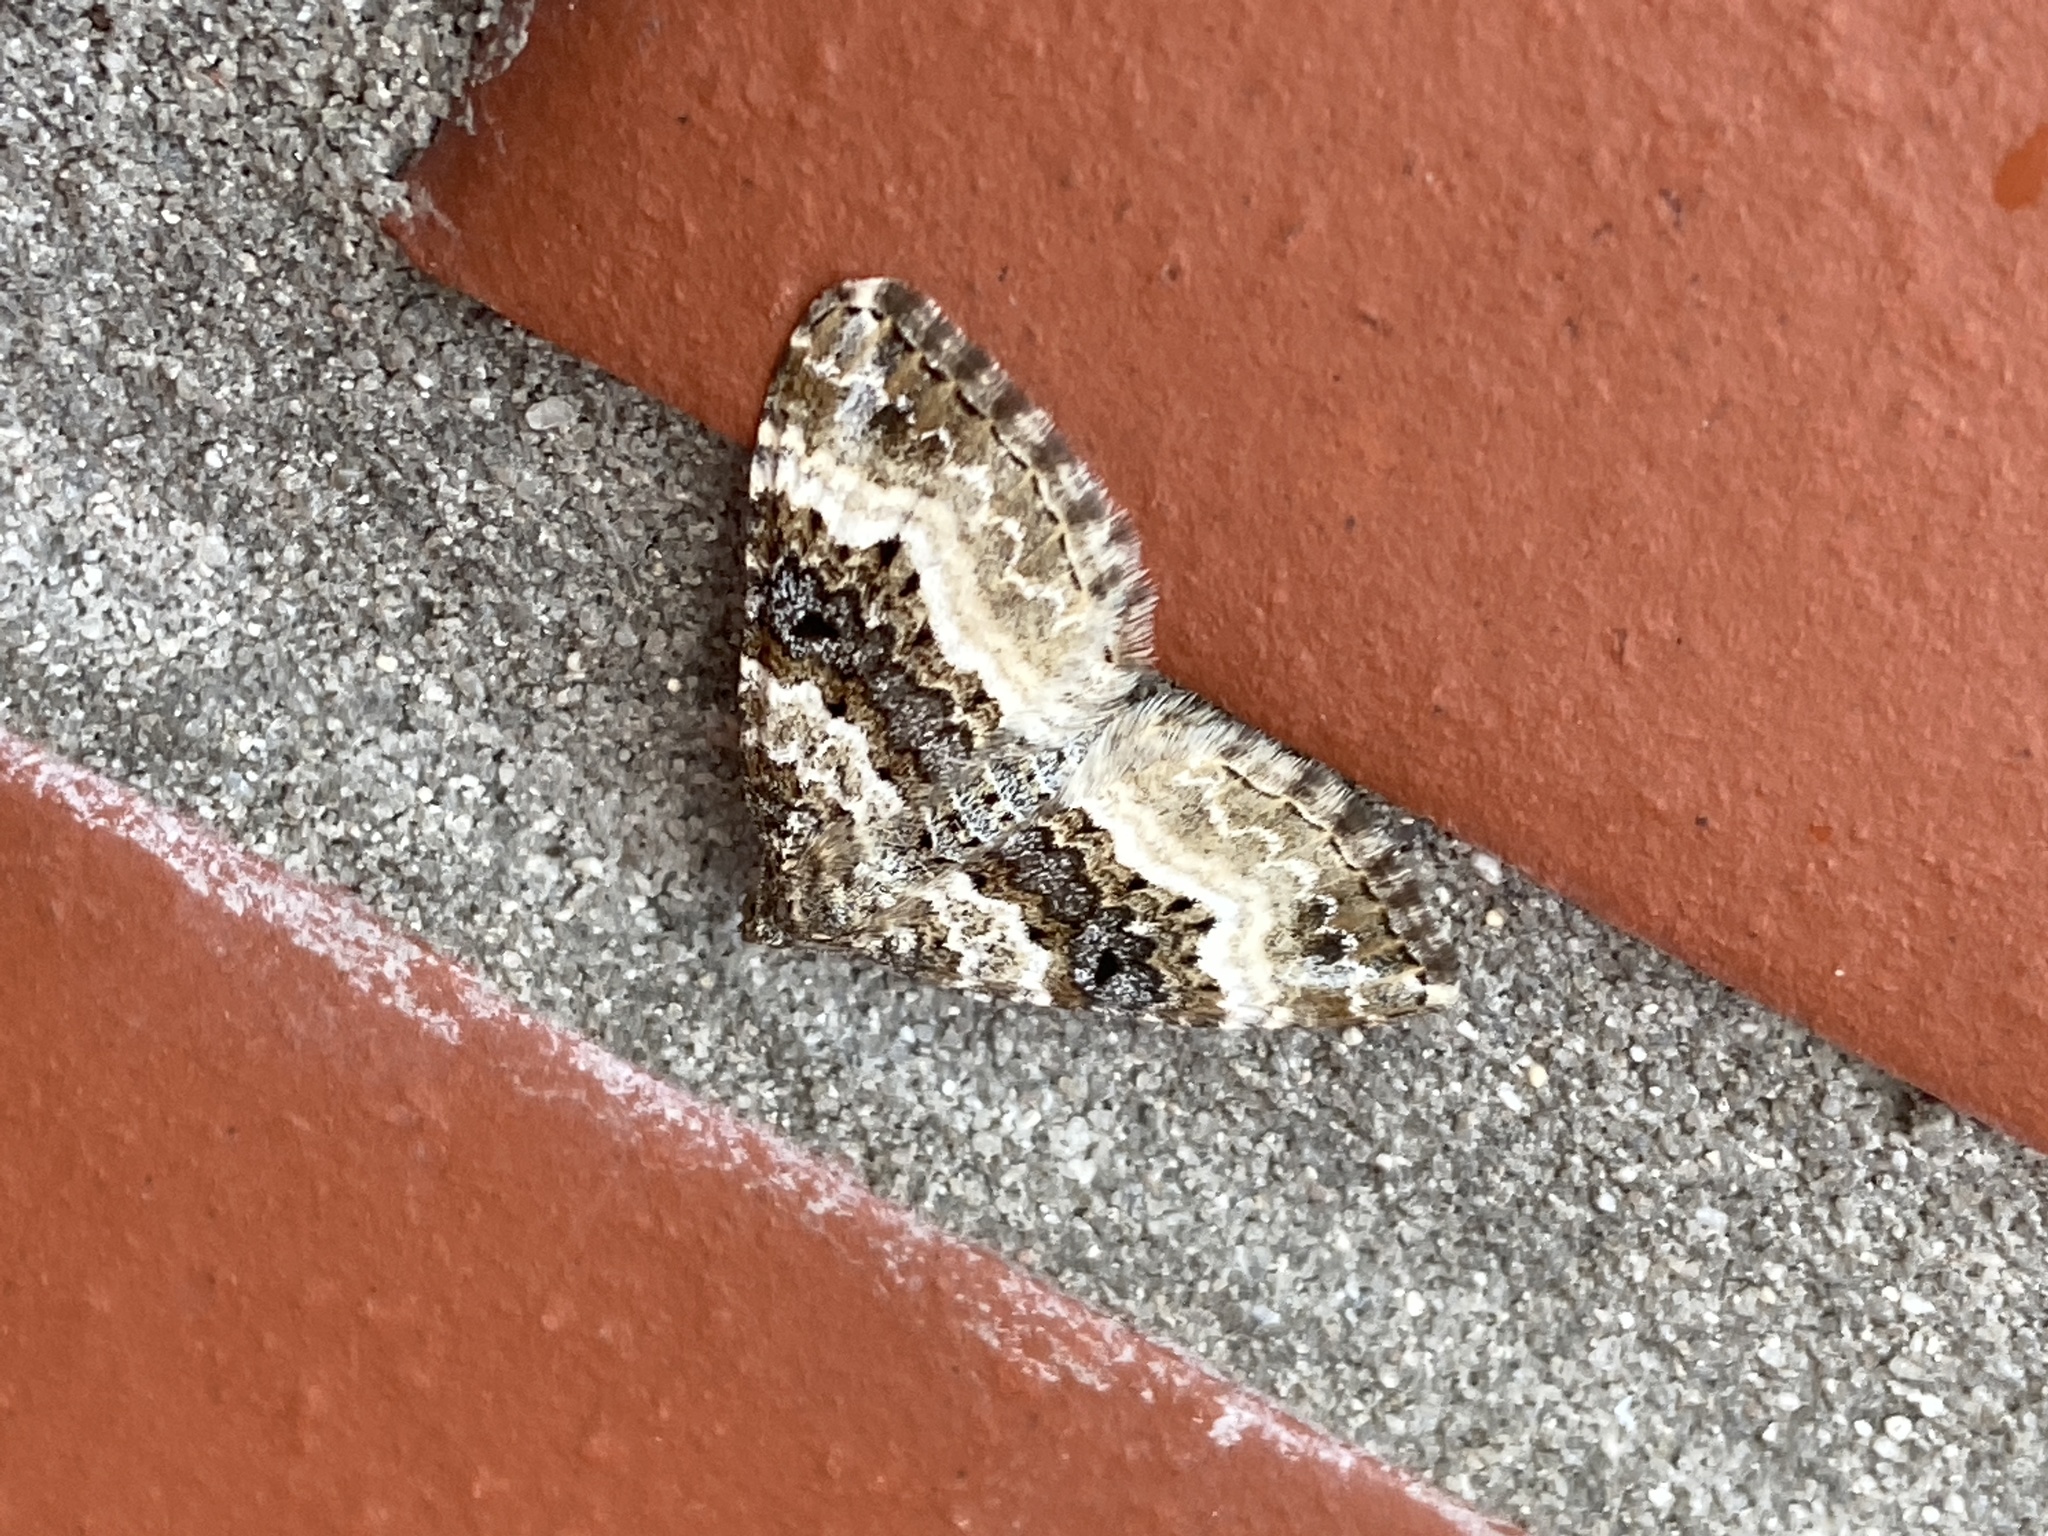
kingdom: Animalia
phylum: Arthropoda
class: Insecta
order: Lepidoptera
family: Geometridae
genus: Epirrhoe
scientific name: Epirrhoe alternata
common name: Common carpet
